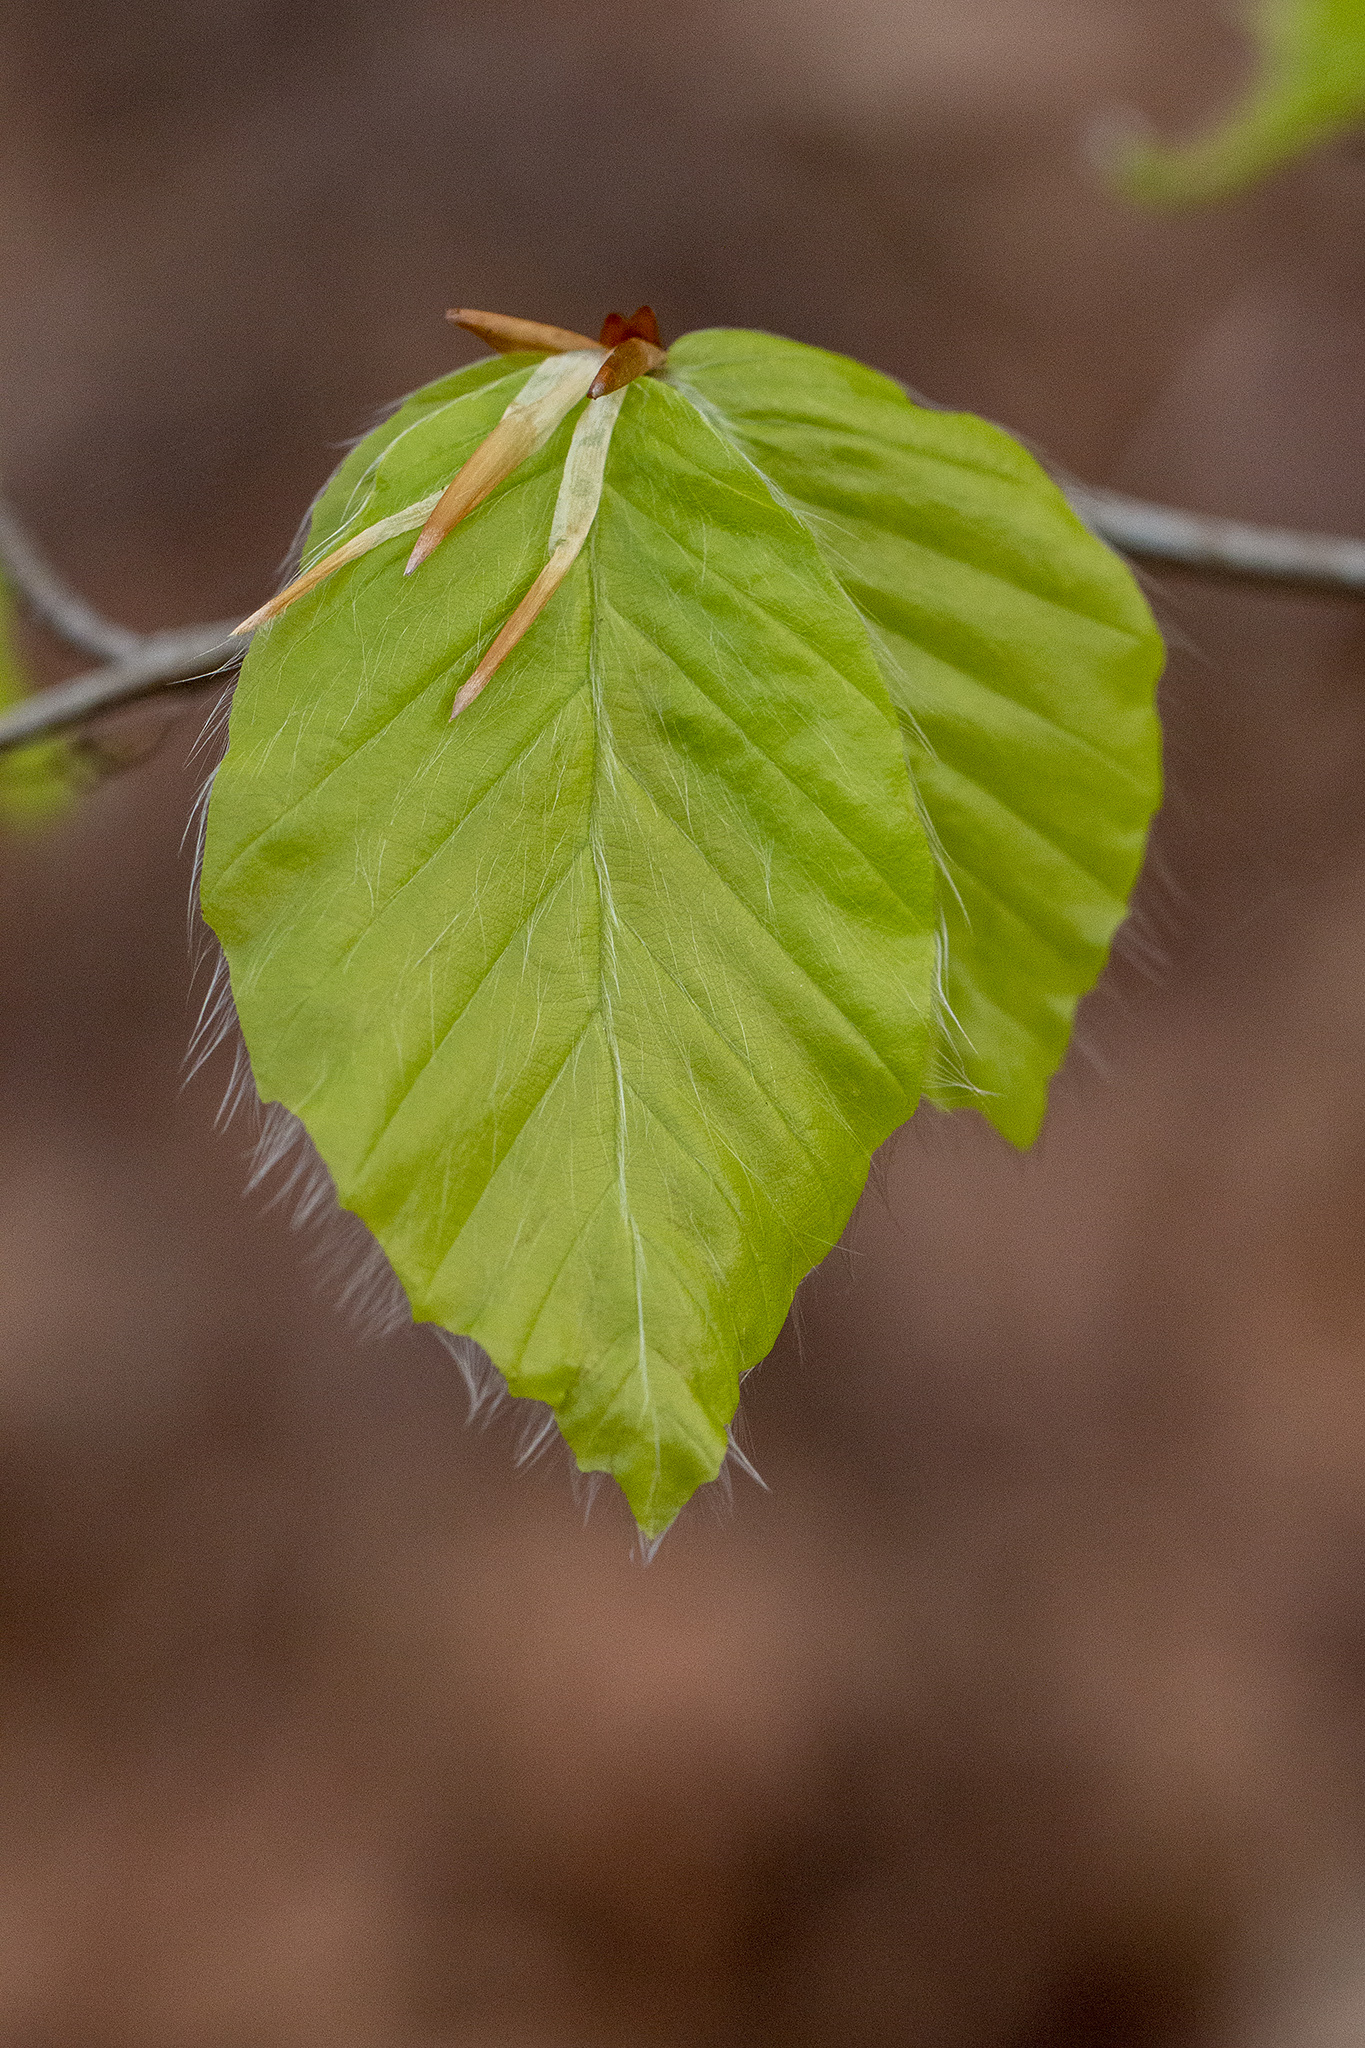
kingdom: Plantae
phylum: Tracheophyta
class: Magnoliopsida
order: Fagales
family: Fagaceae
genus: Fagus
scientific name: Fagus sylvatica
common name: Beech
